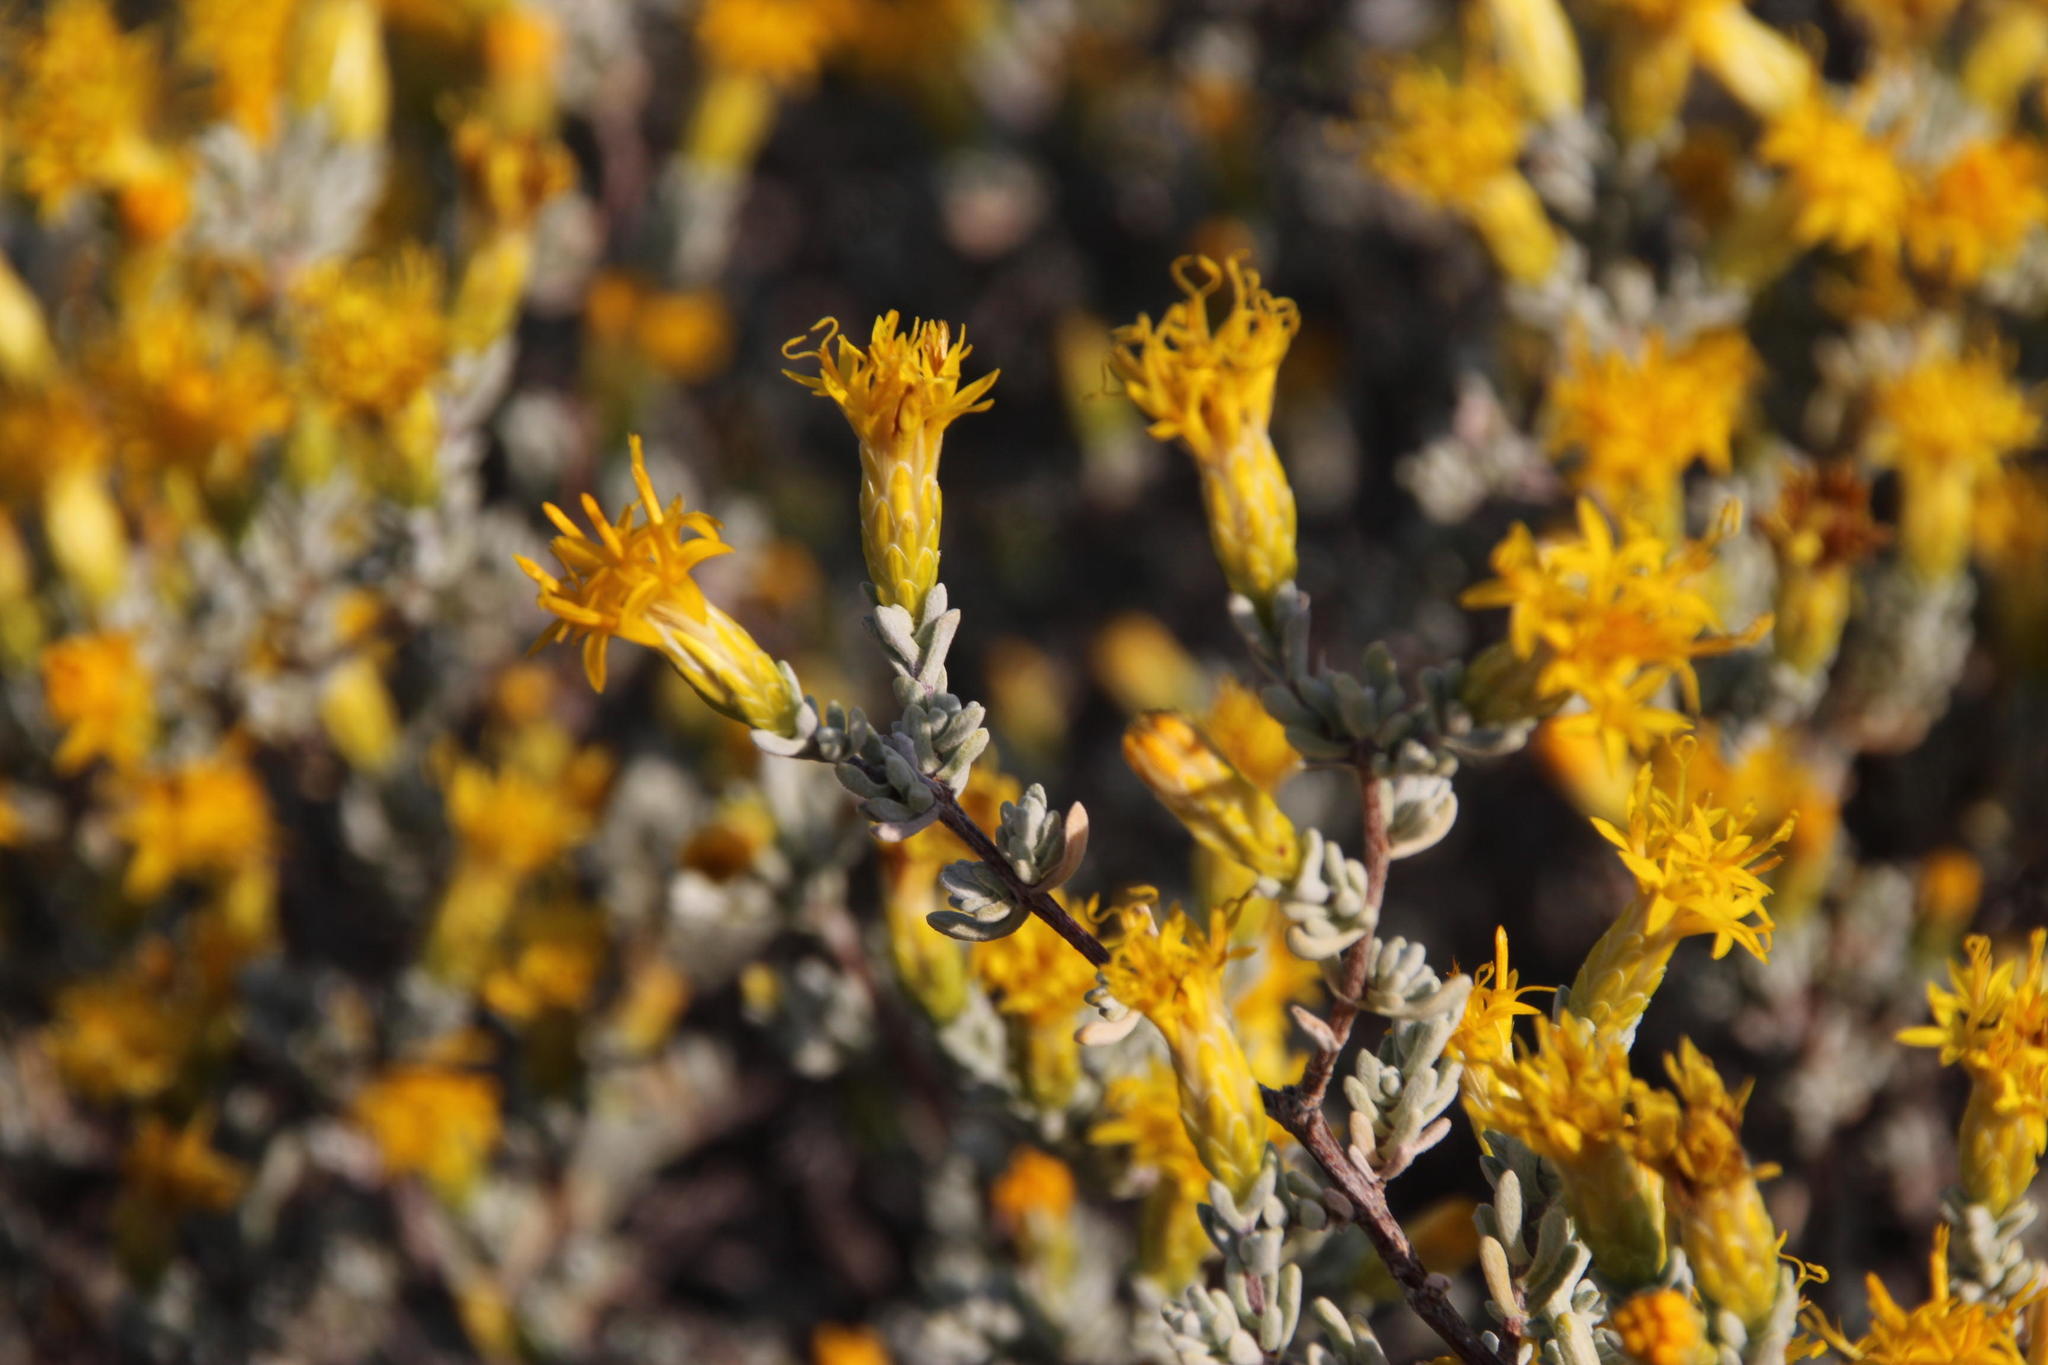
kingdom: Plantae
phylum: Tracheophyta
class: Magnoliopsida
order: Asterales
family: Asteraceae
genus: Pteronia
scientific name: Pteronia incana
